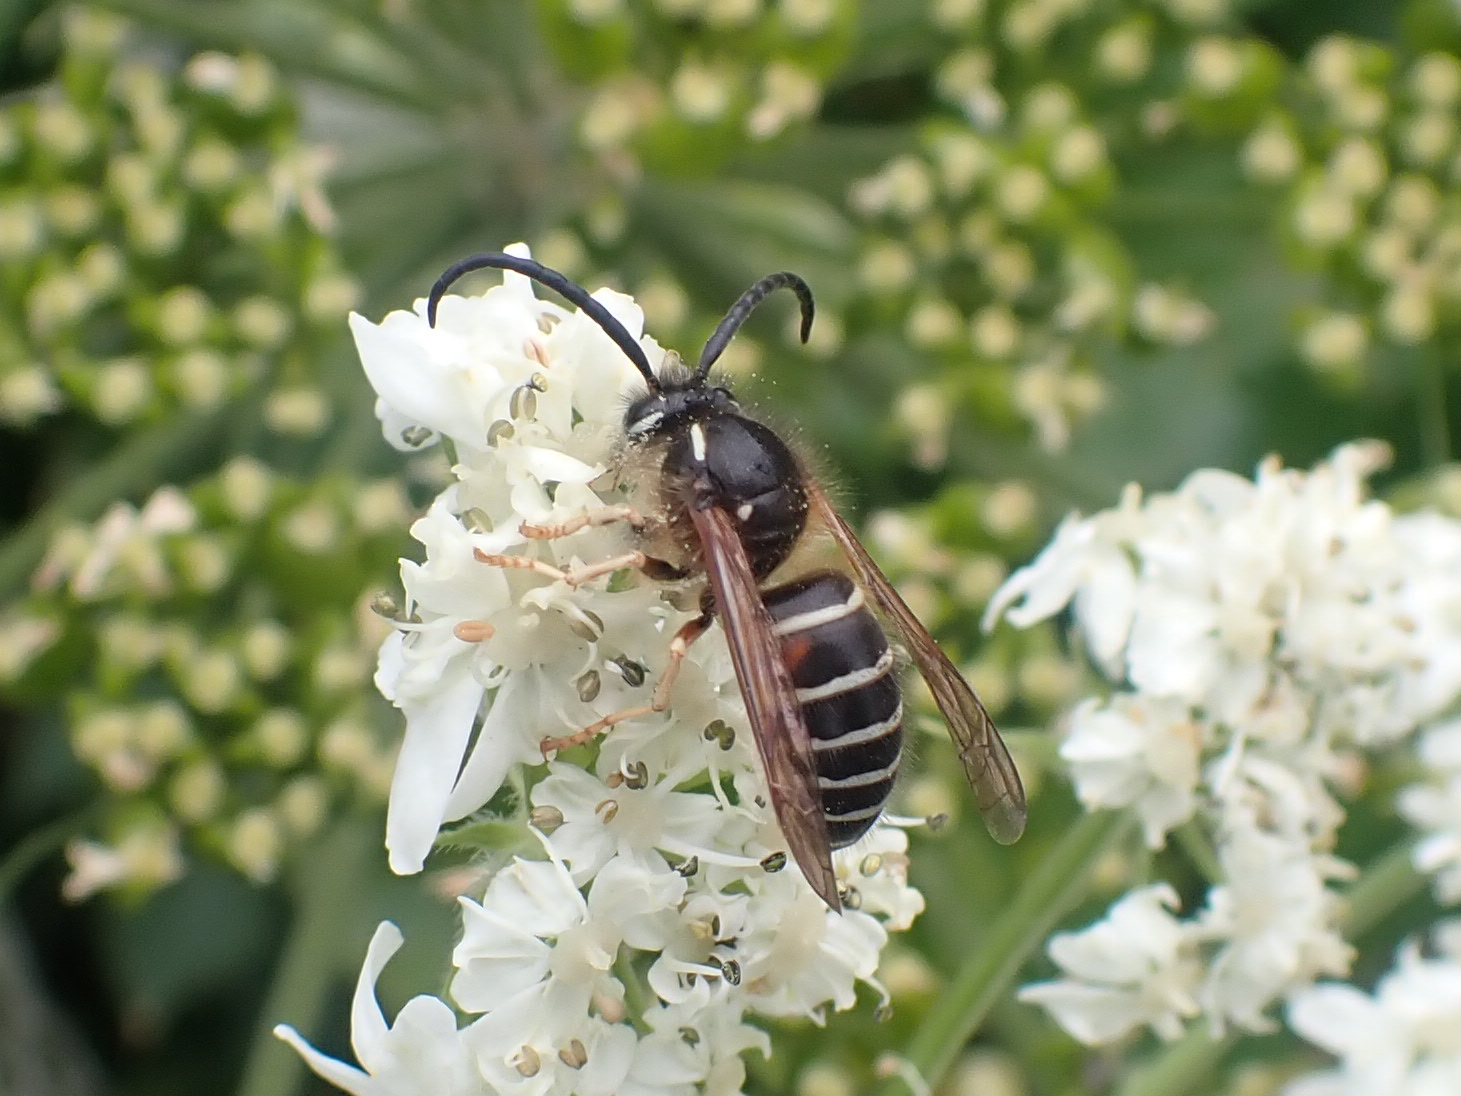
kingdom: Animalia
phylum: Arthropoda
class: Insecta
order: Hymenoptera
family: Vespidae
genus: Dolichovespula
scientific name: Dolichovespula norwegica
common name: Norwegian wasp
